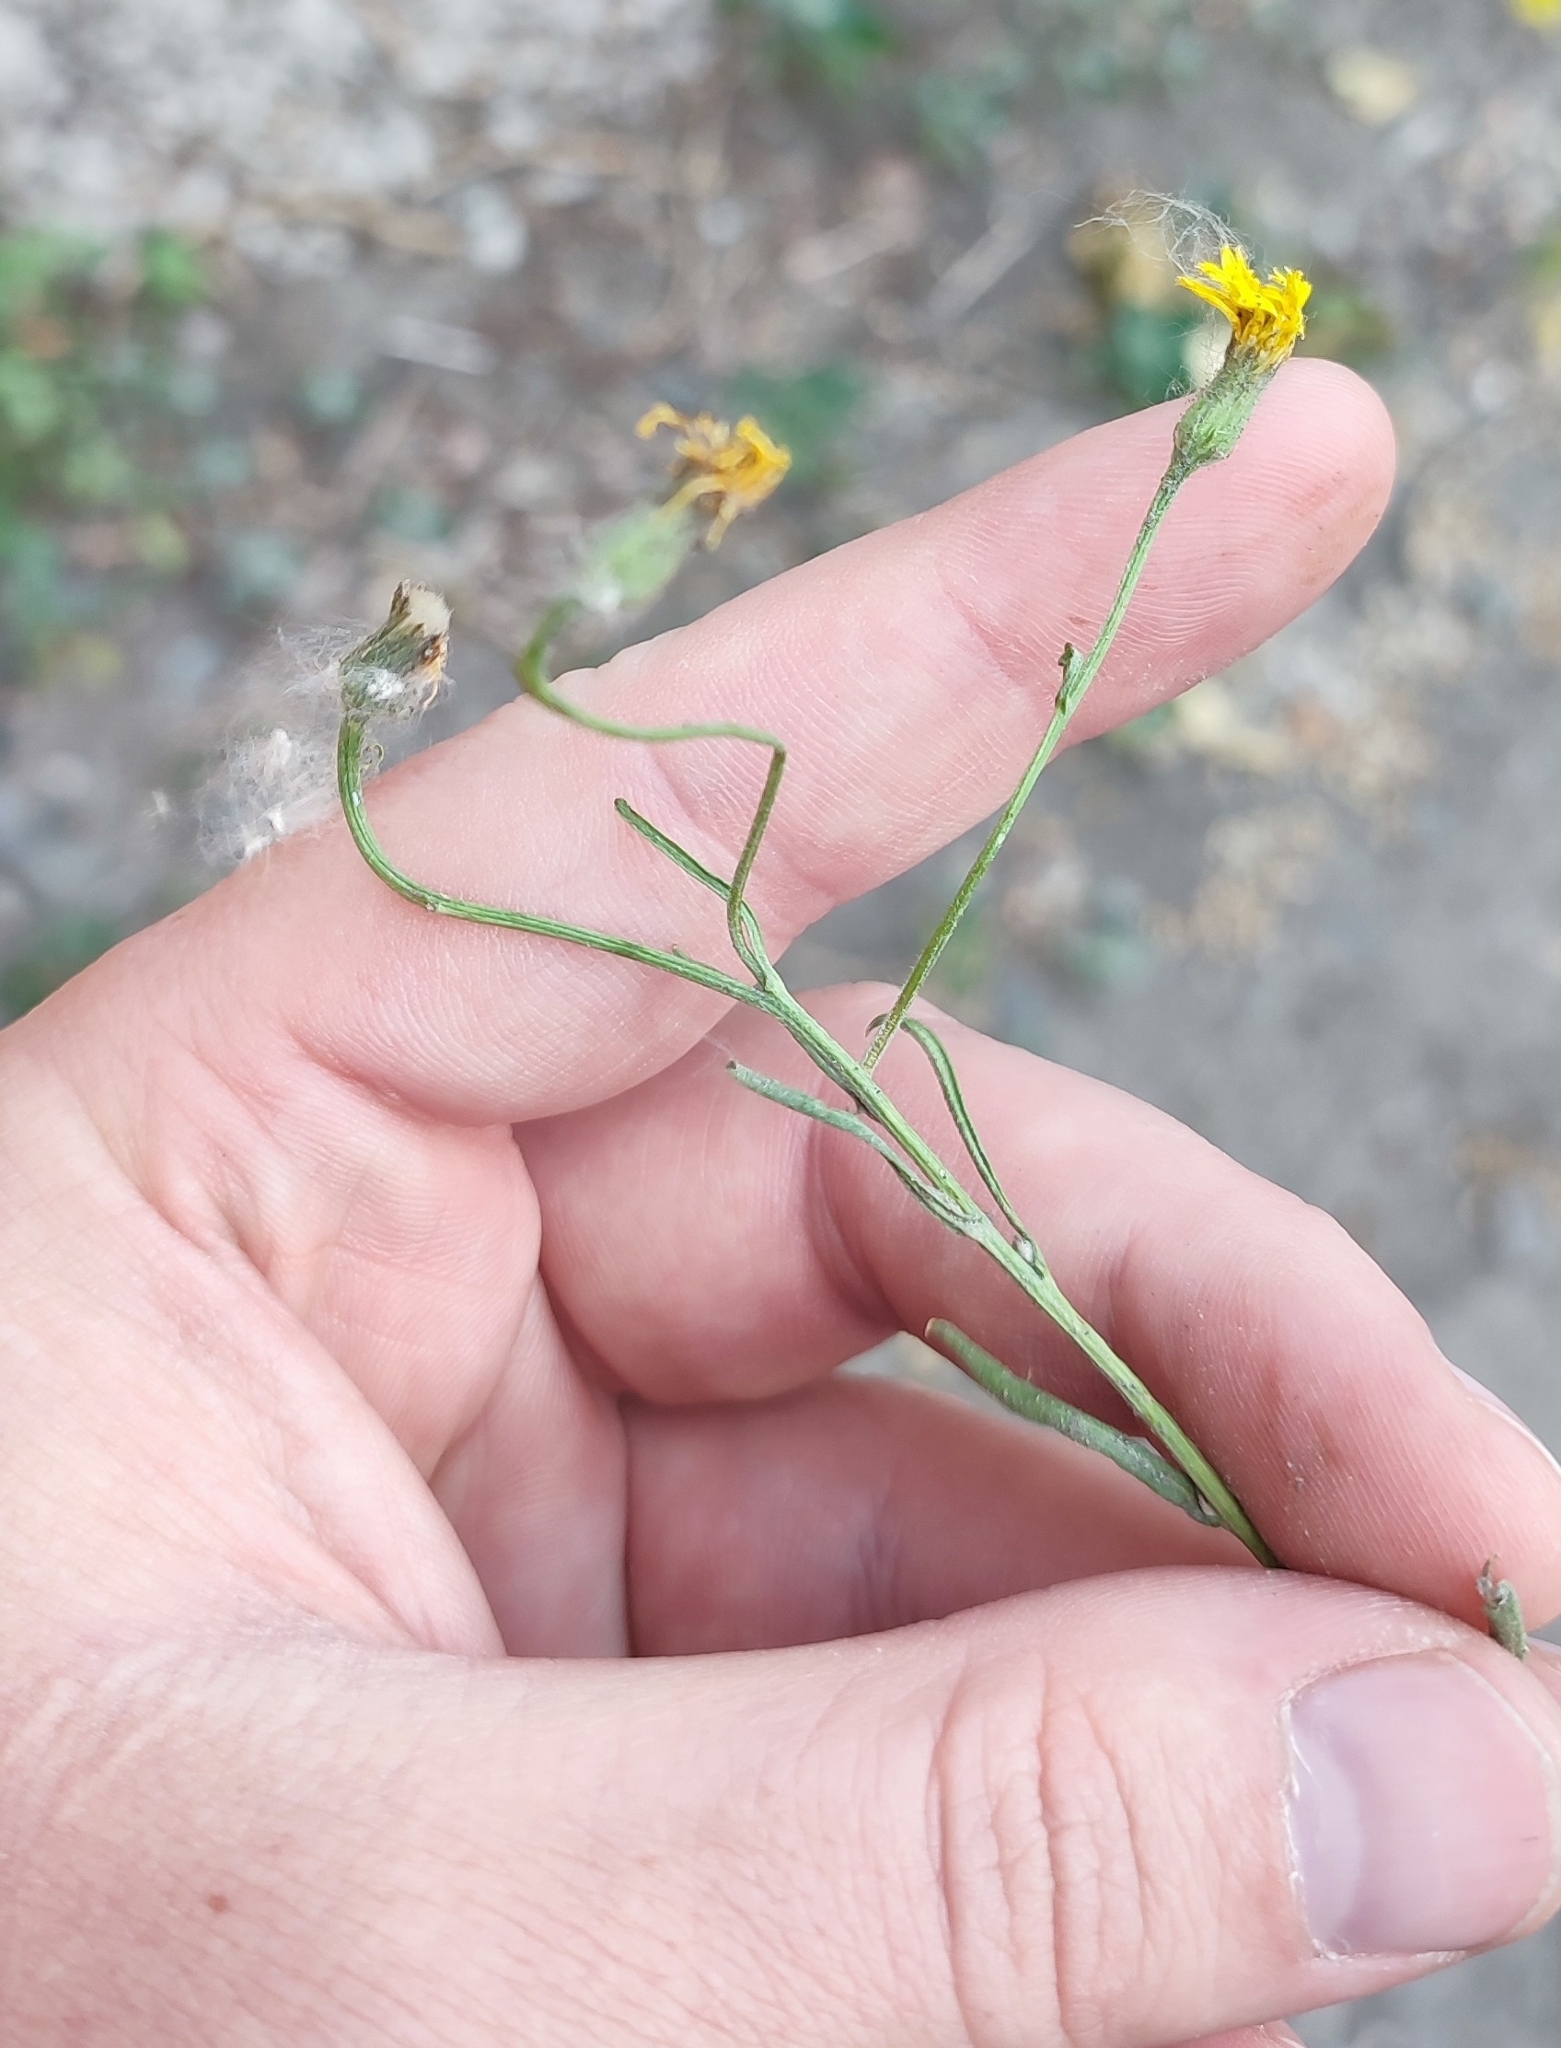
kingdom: Plantae
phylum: Tracheophyta
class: Magnoliopsida
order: Asterales
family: Asteraceae
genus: Crepis
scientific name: Crepis tectorum
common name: Narrow-leaved hawk's-beard
